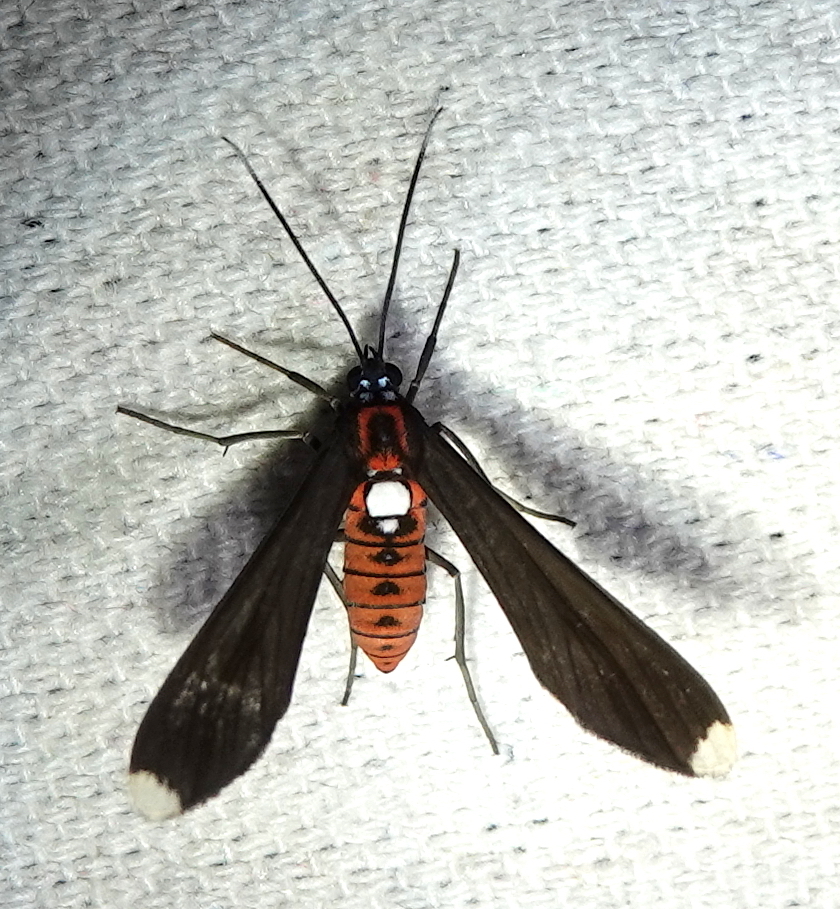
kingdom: Animalia
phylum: Arthropoda
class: Insecta
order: Lepidoptera
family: Erebidae
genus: Horamella
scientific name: Horamella fassli
